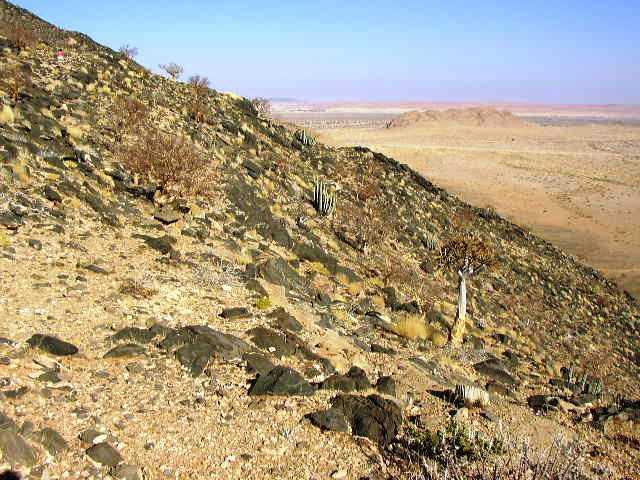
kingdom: Plantae
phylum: Tracheophyta
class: Liliopsida
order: Asparagales
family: Asphodelaceae
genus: Aloidendron
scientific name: Aloidendron dichotomum
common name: Quiver tree
